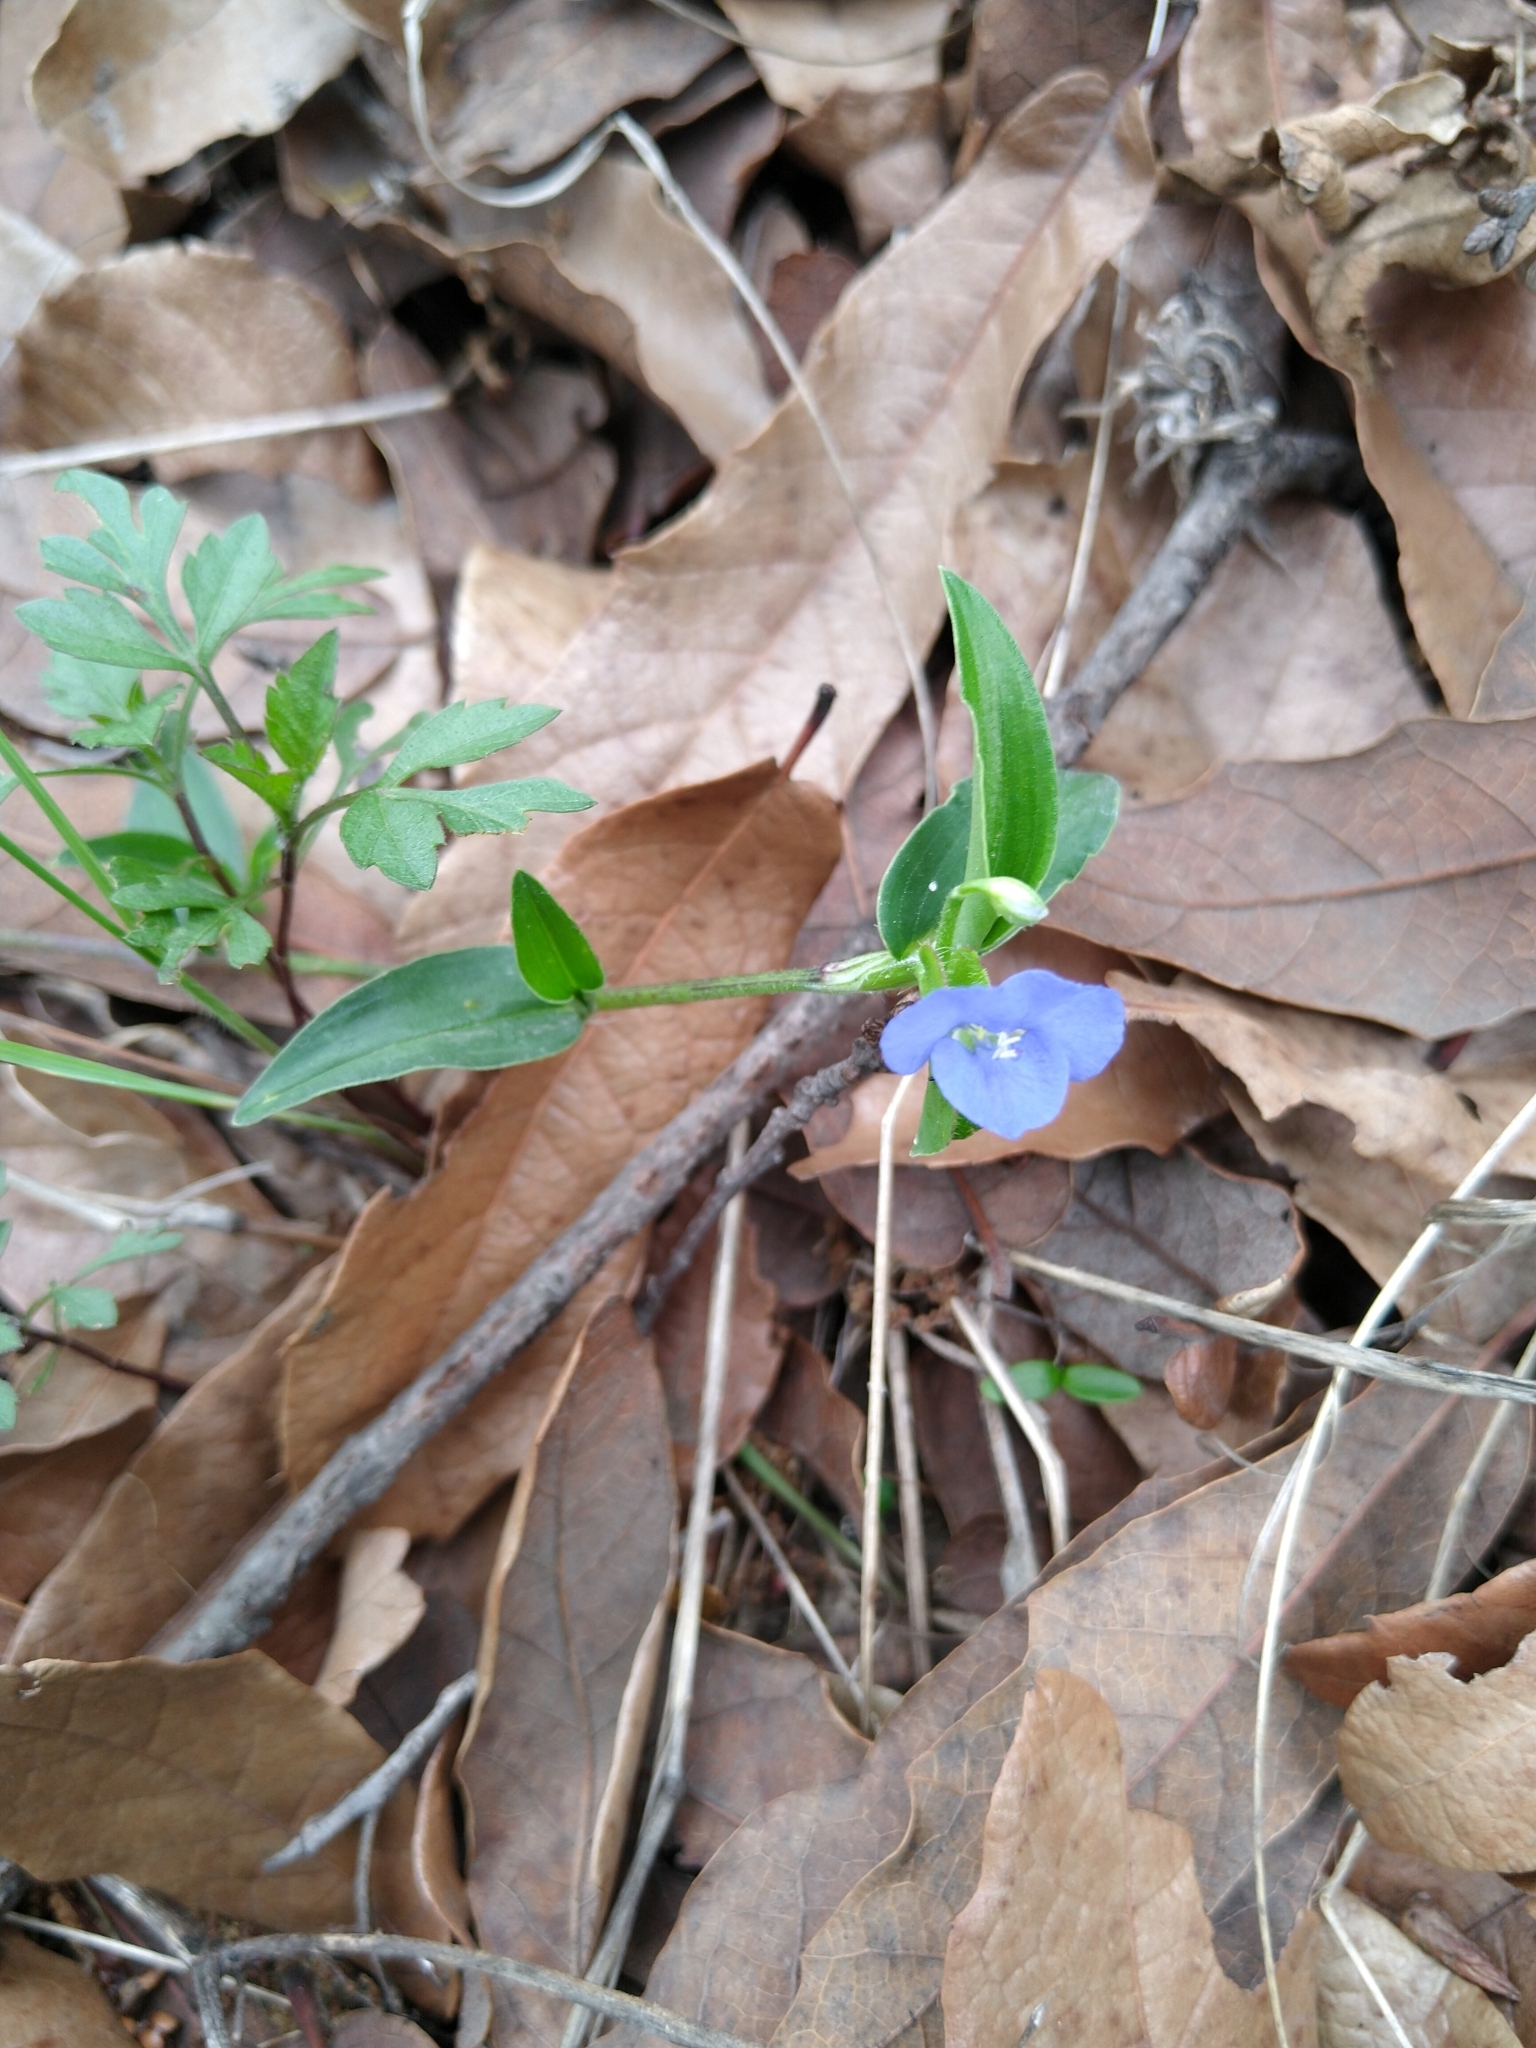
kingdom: Plantae
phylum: Tracheophyta
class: Liliopsida
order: Commelinales
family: Commelinaceae
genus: Commelina
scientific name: Commelina diffusa
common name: Climbing dayflower
